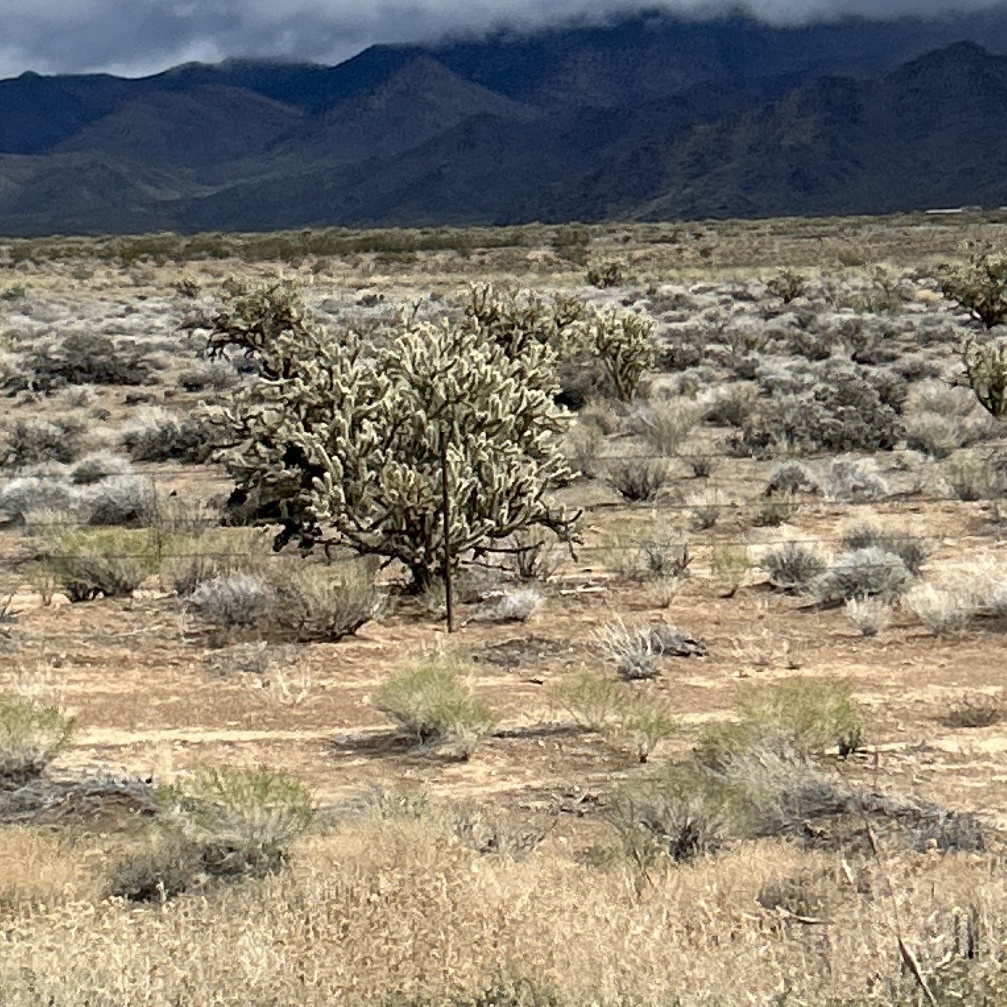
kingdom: Plantae
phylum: Tracheophyta
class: Magnoliopsida
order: Caryophyllales
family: Cactaceae
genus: Cylindropuntia
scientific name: Cylindropuntia acanthocarpa
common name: Buckhorn cholla
